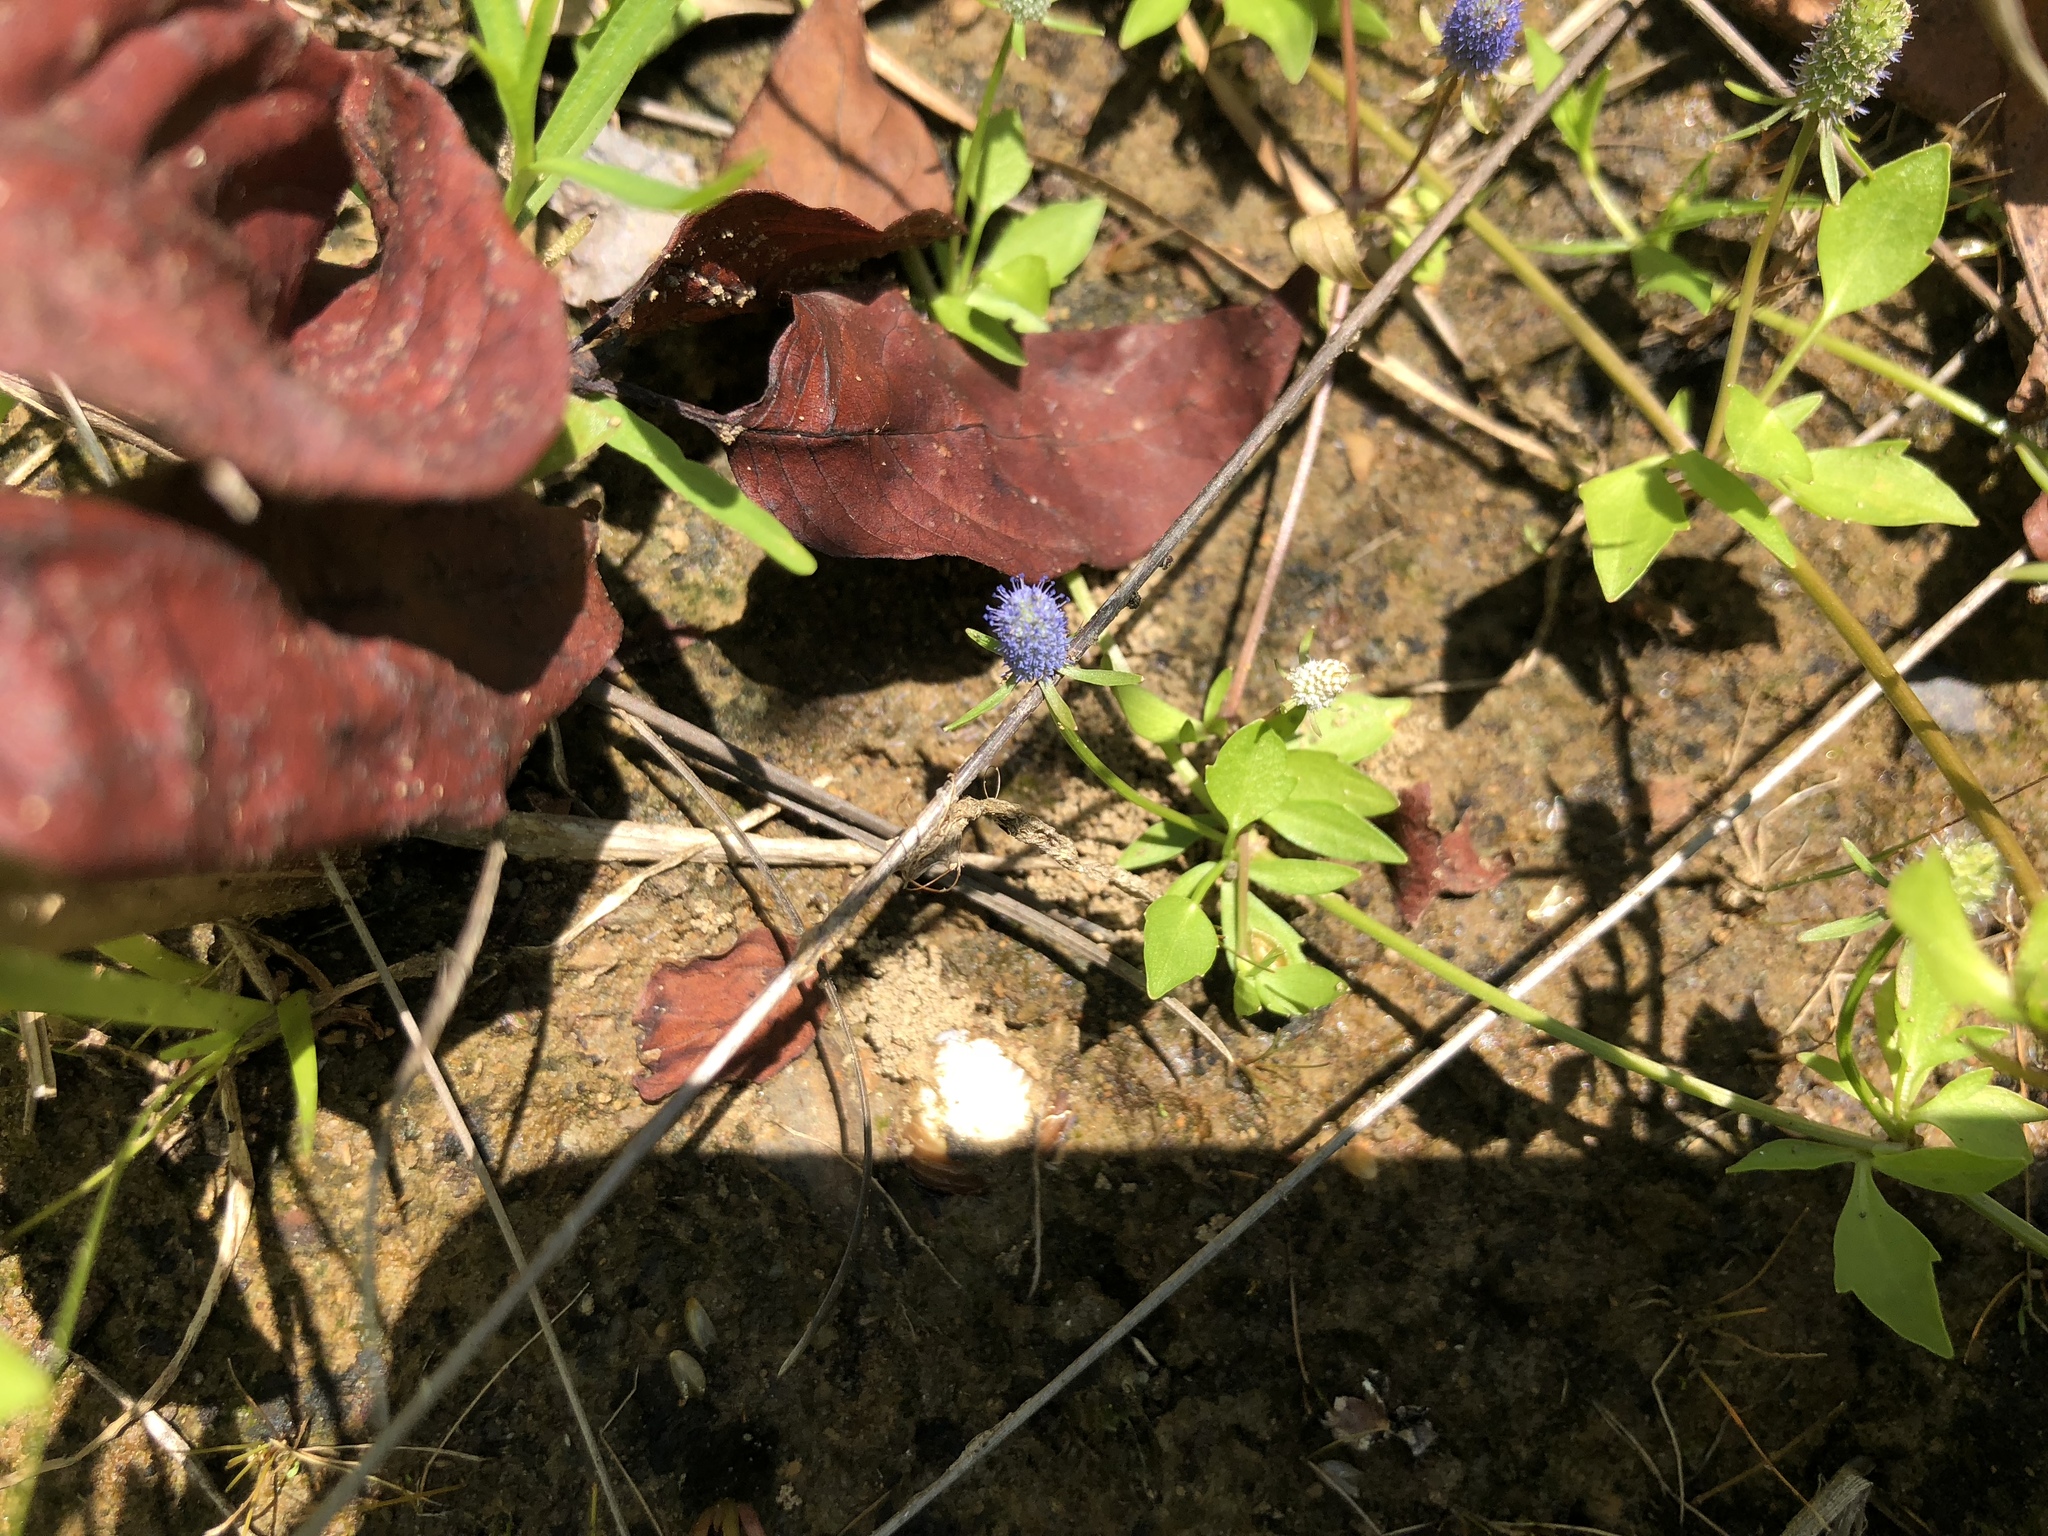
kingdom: Plantae
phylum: Tracheophyta
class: Magnoliopsida
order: Apiales
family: Apiaceae
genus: Eryngium
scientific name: Eryngium prostratum
